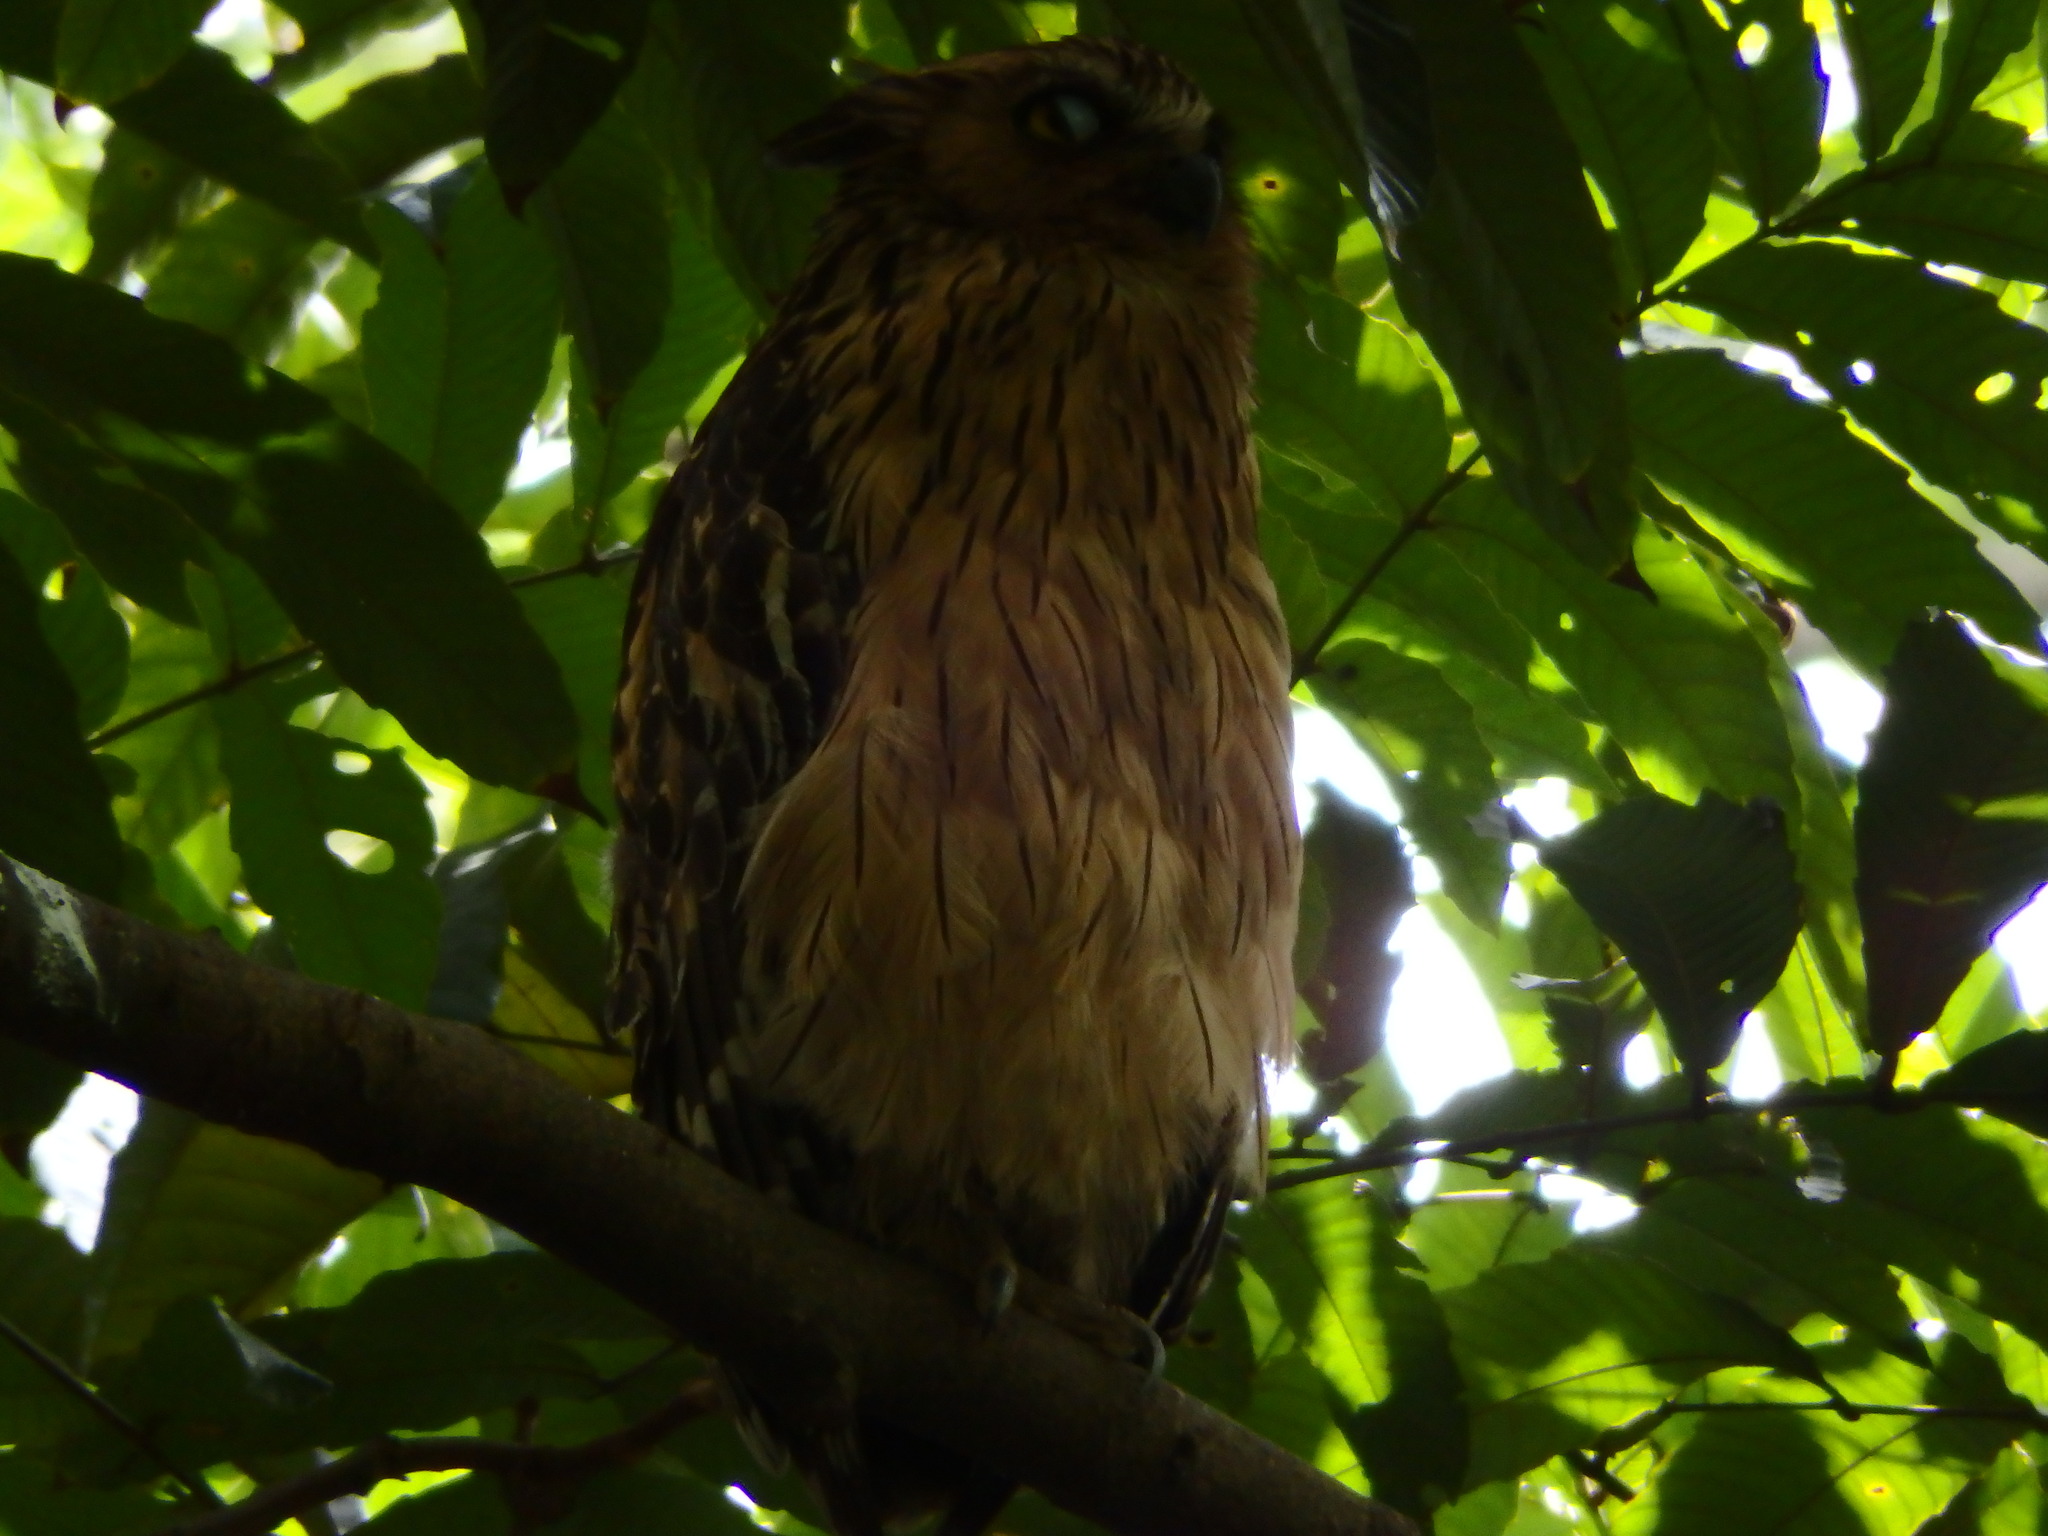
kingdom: Animalia
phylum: Chordata
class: Aves
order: Strigiformes
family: Strigidae
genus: Ketupa
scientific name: Ketupa ketupu
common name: Buffy fish-owl
